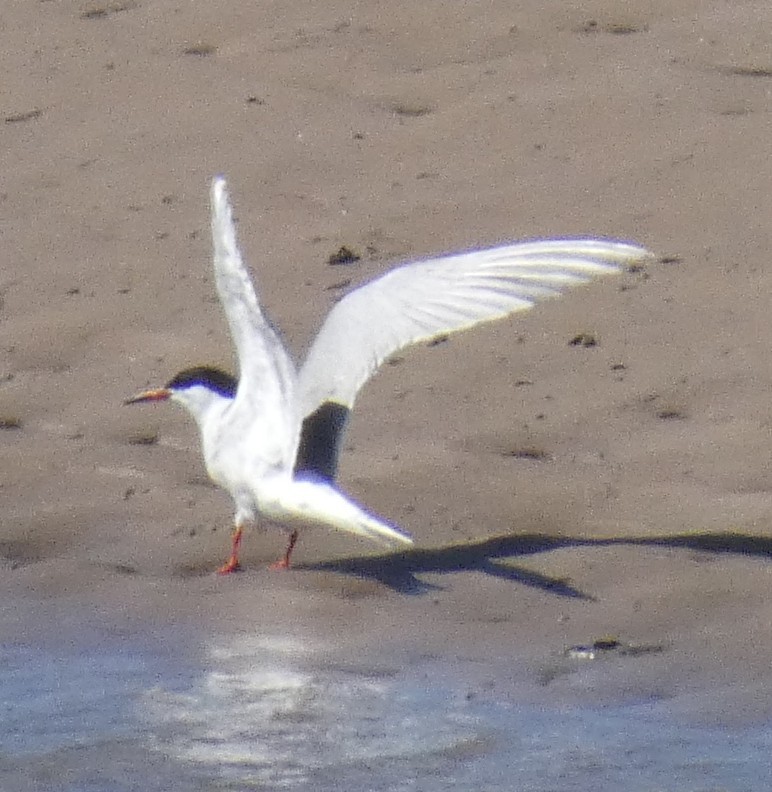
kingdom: Animalia
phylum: Chordata
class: Aves
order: Charadriiformes
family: Laridae
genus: Sterna
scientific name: Sterna hirundo
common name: Common tern
